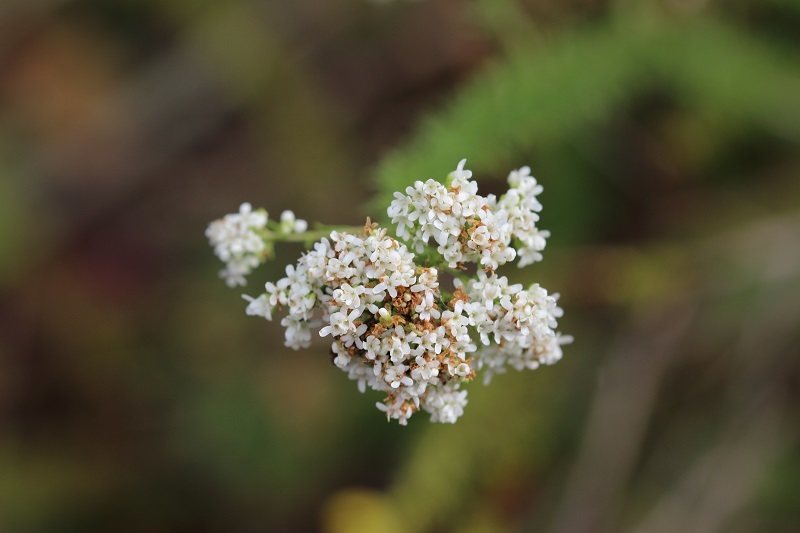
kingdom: Plantae
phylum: Tracheophyta
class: Magnoliopsida
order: Lamiales
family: Scrophulariaceae
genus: Selago
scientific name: Selago corymbosa
